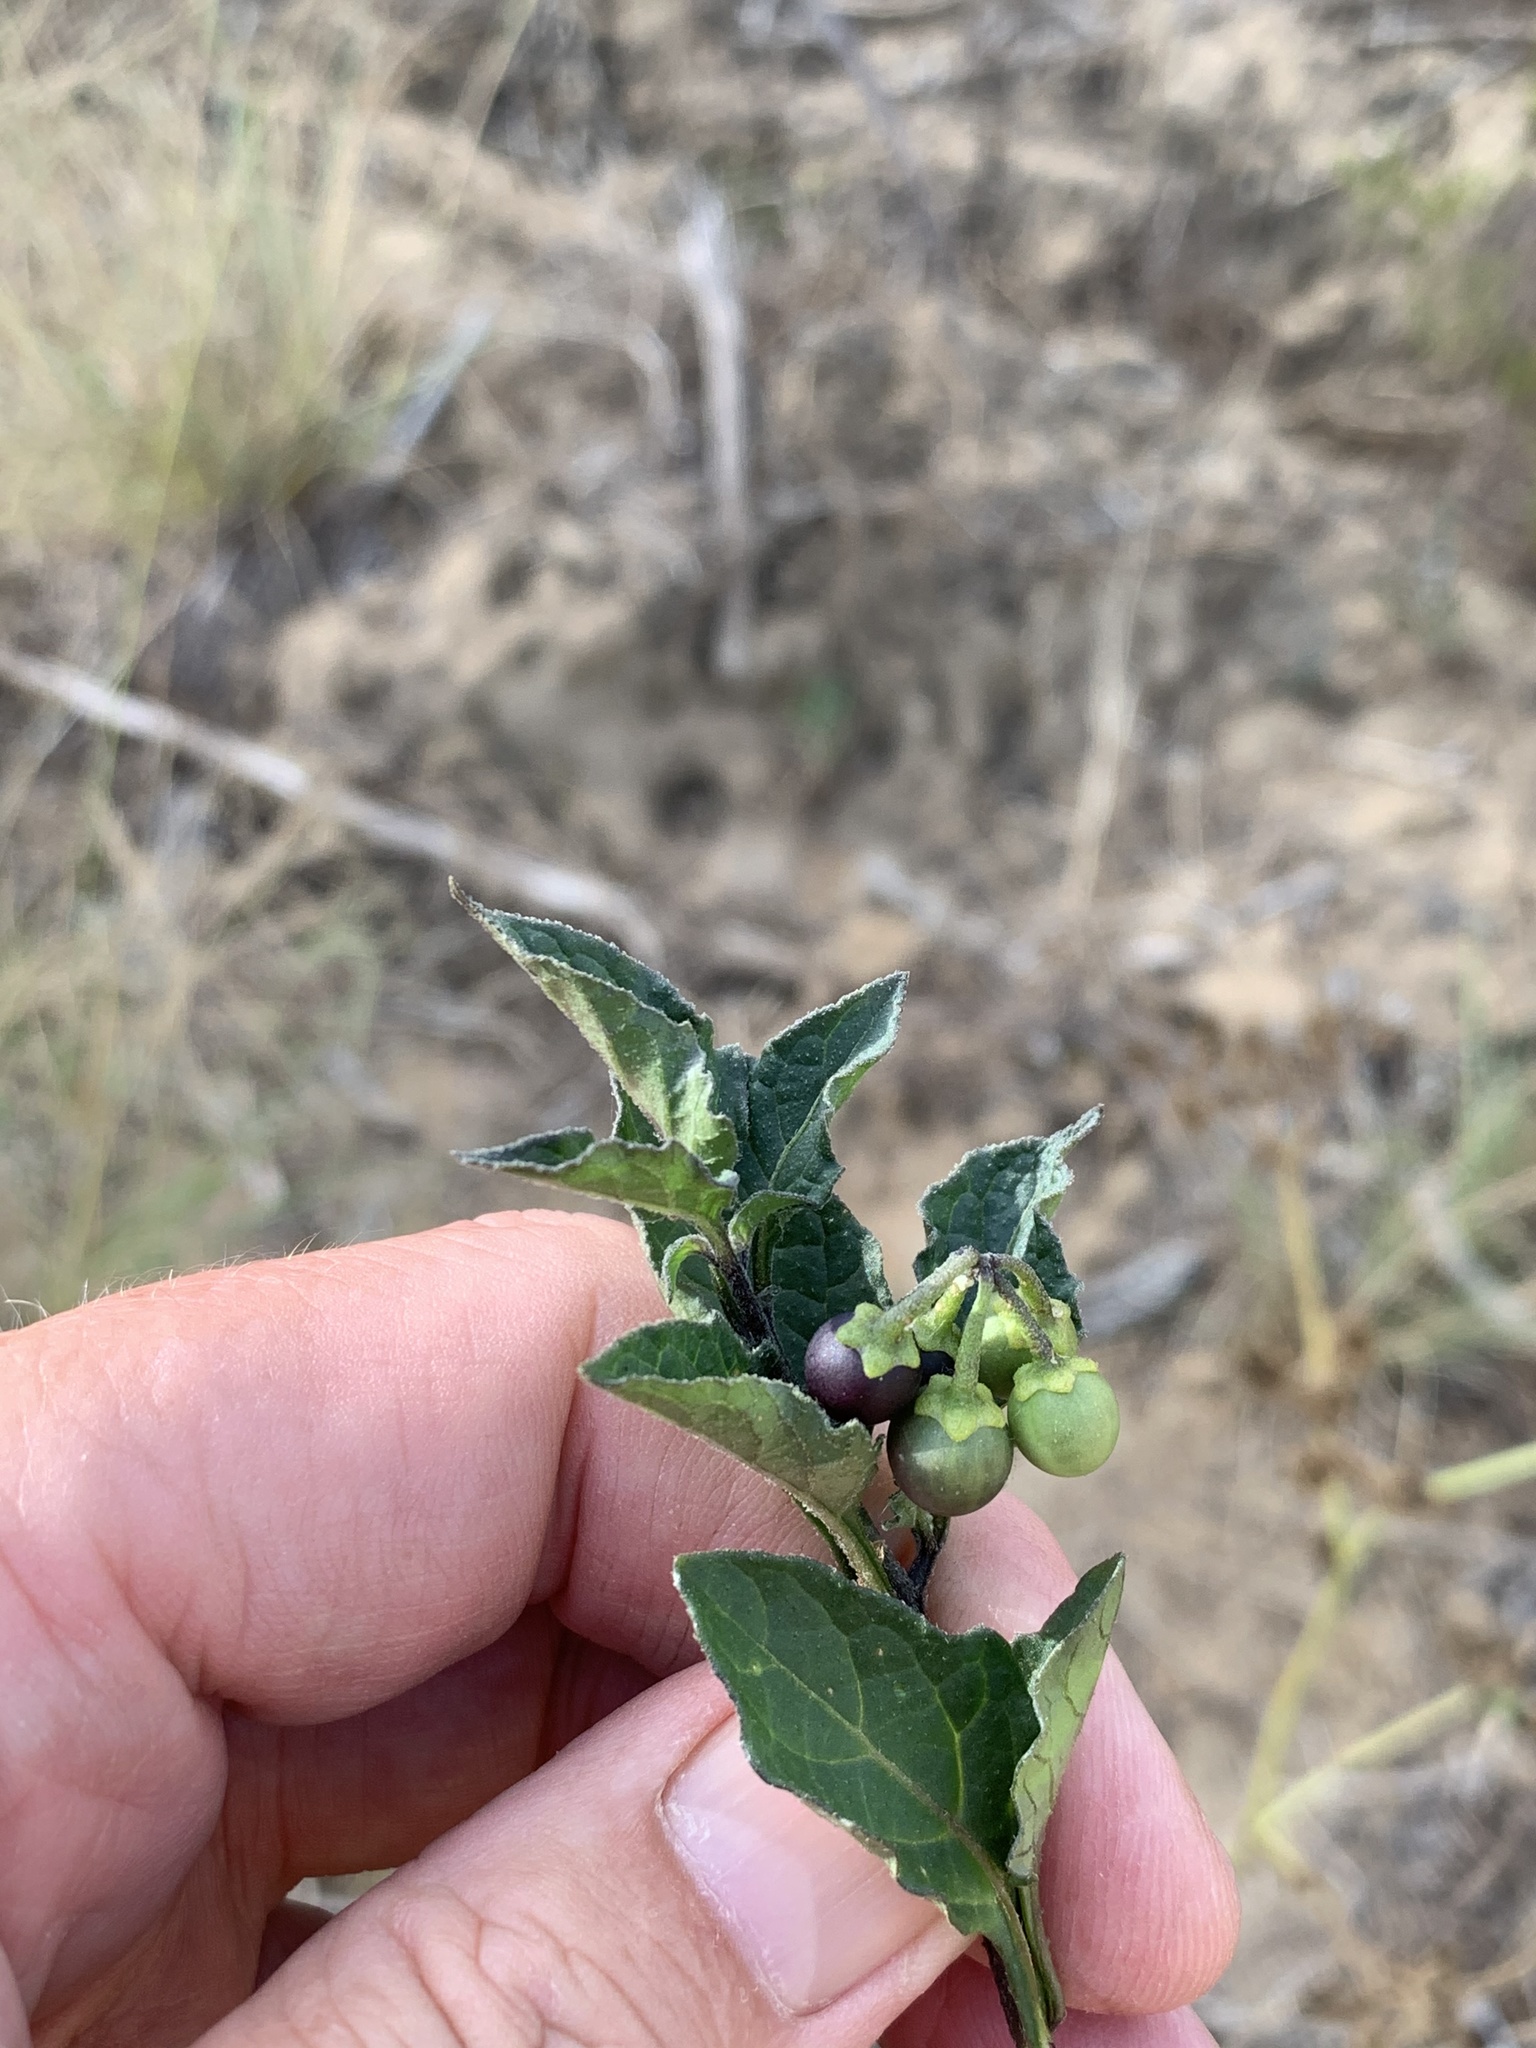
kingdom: Plantae
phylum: Tracheophyta
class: Magnoliopsida
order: Solanales
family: Solanaceae
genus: Solanum
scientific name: Solanum nigrum
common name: Black nightshade
